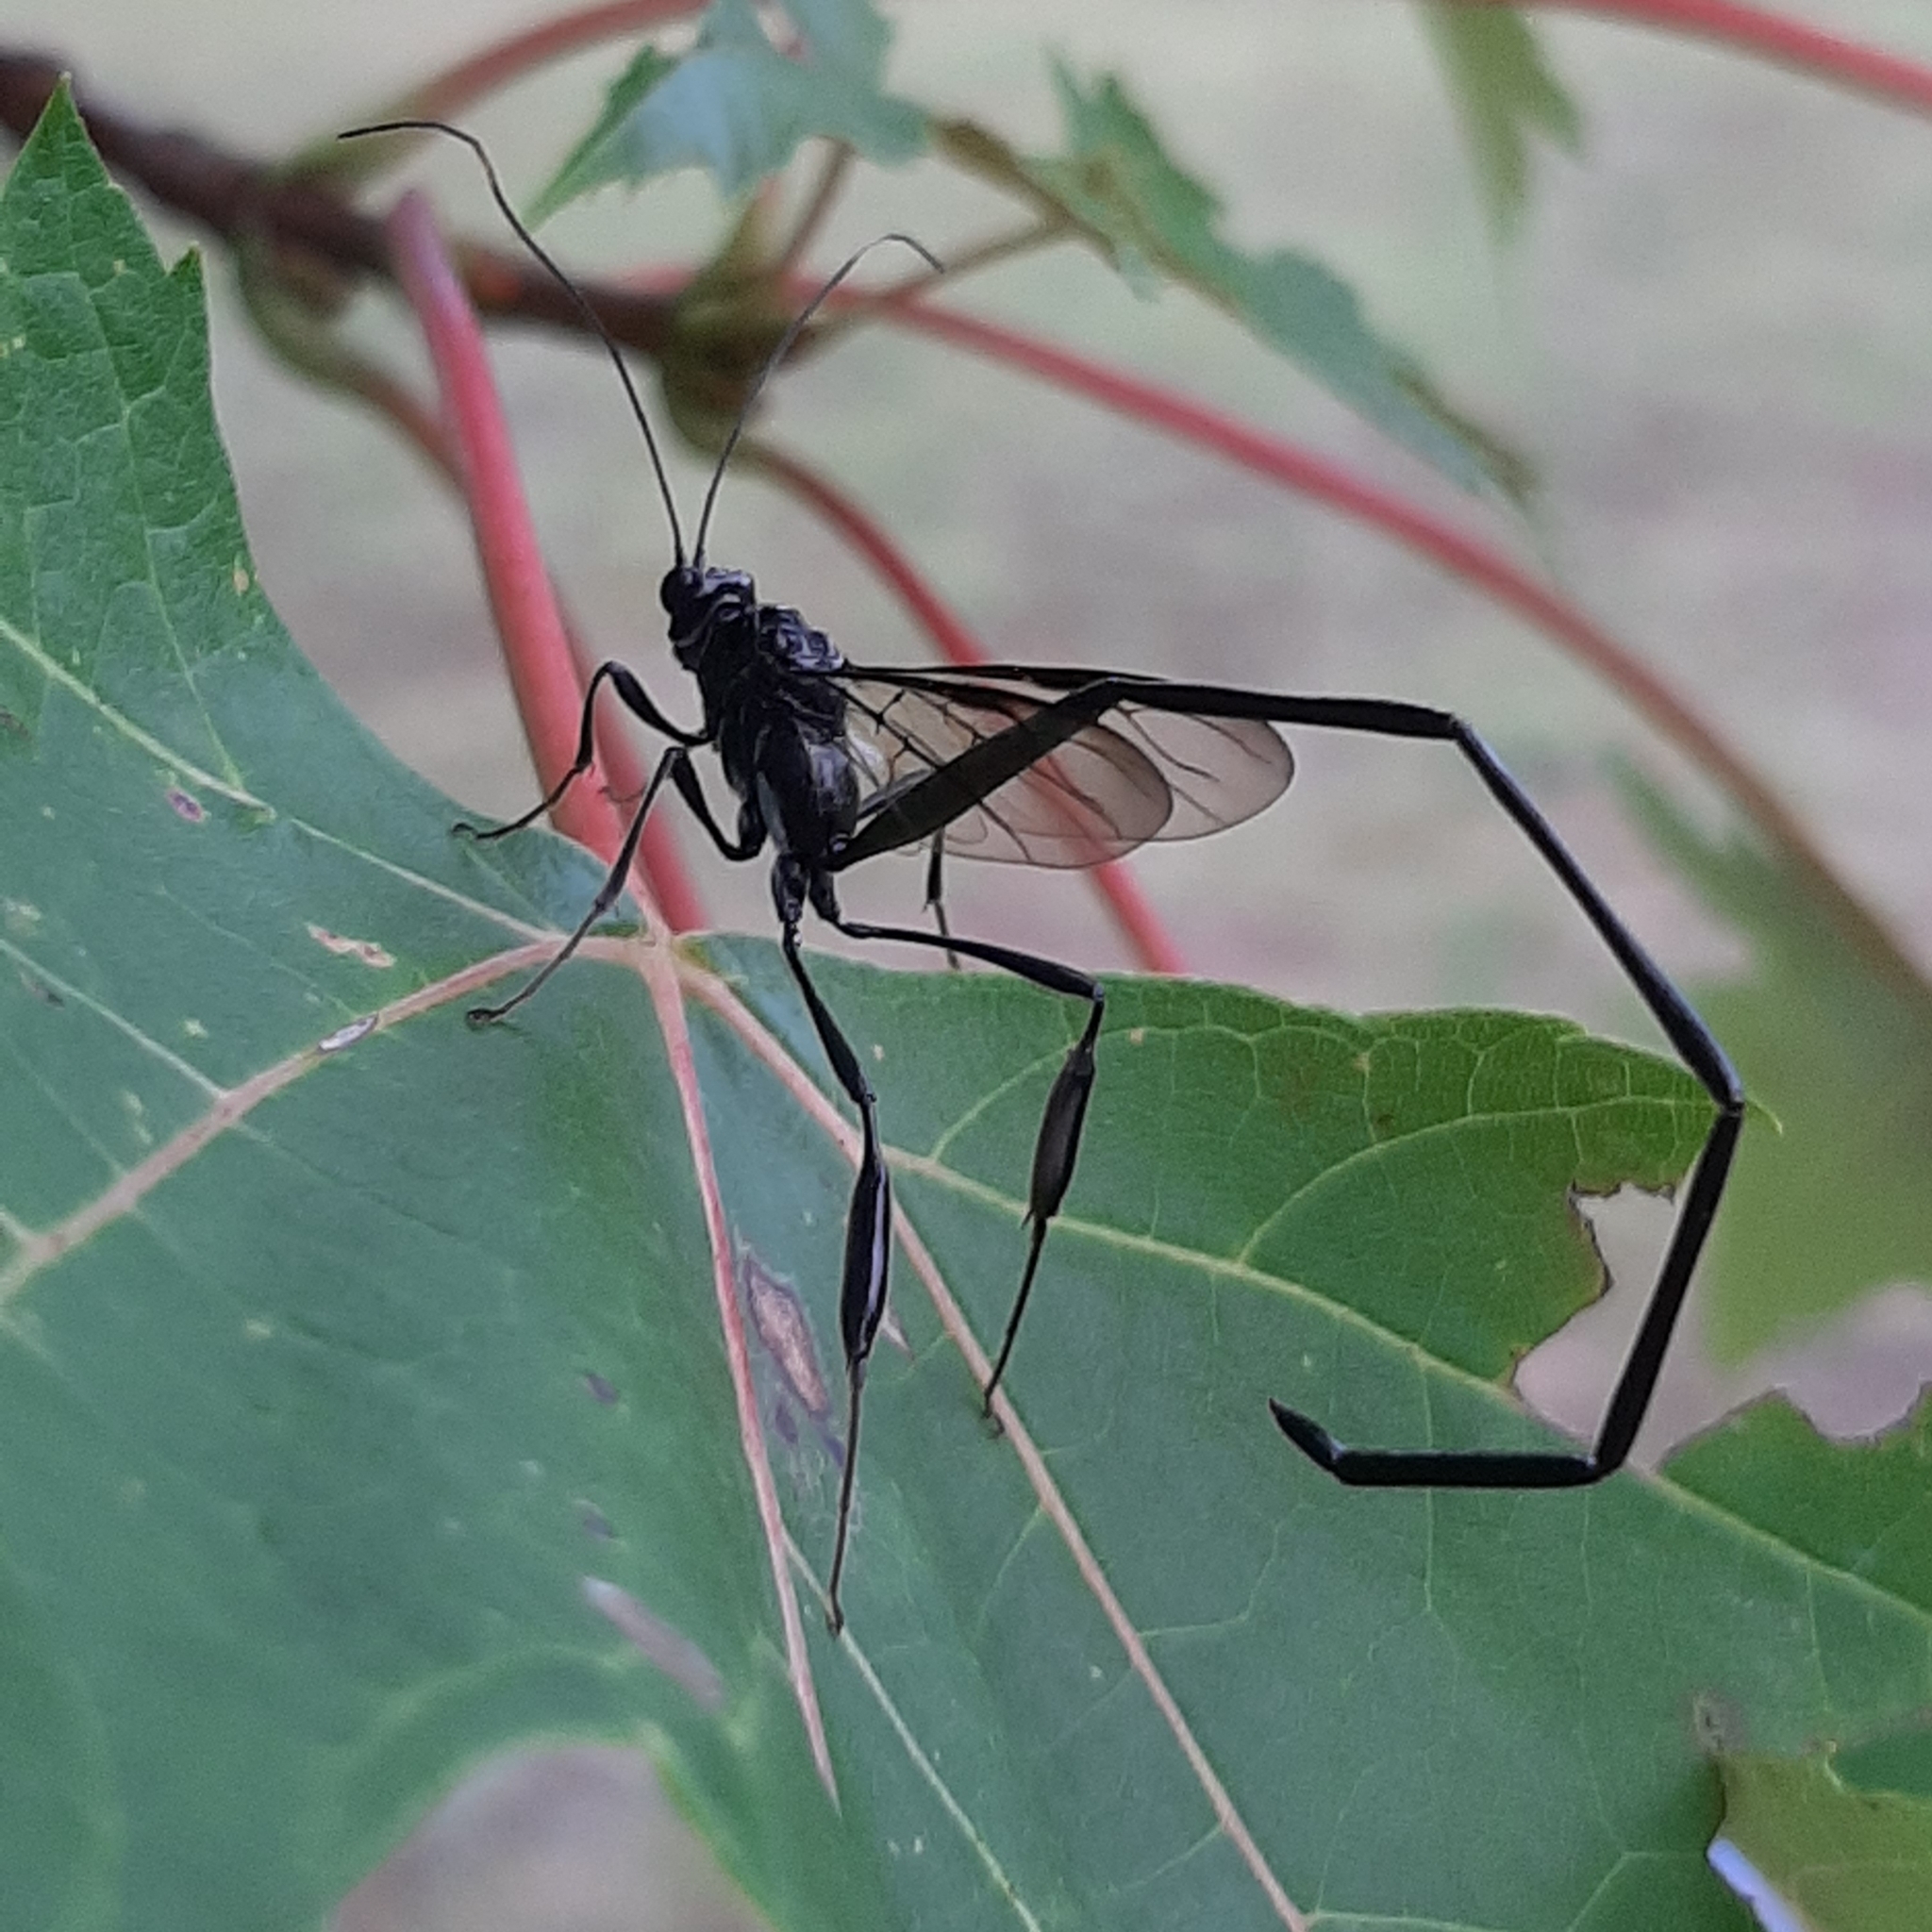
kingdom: Animalia
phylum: Arthropoda
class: Insecta
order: Hymenoptera
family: Pelecinidae
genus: Pelecinus
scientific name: Pelecinus polyturator
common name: American pelecinid wasp
